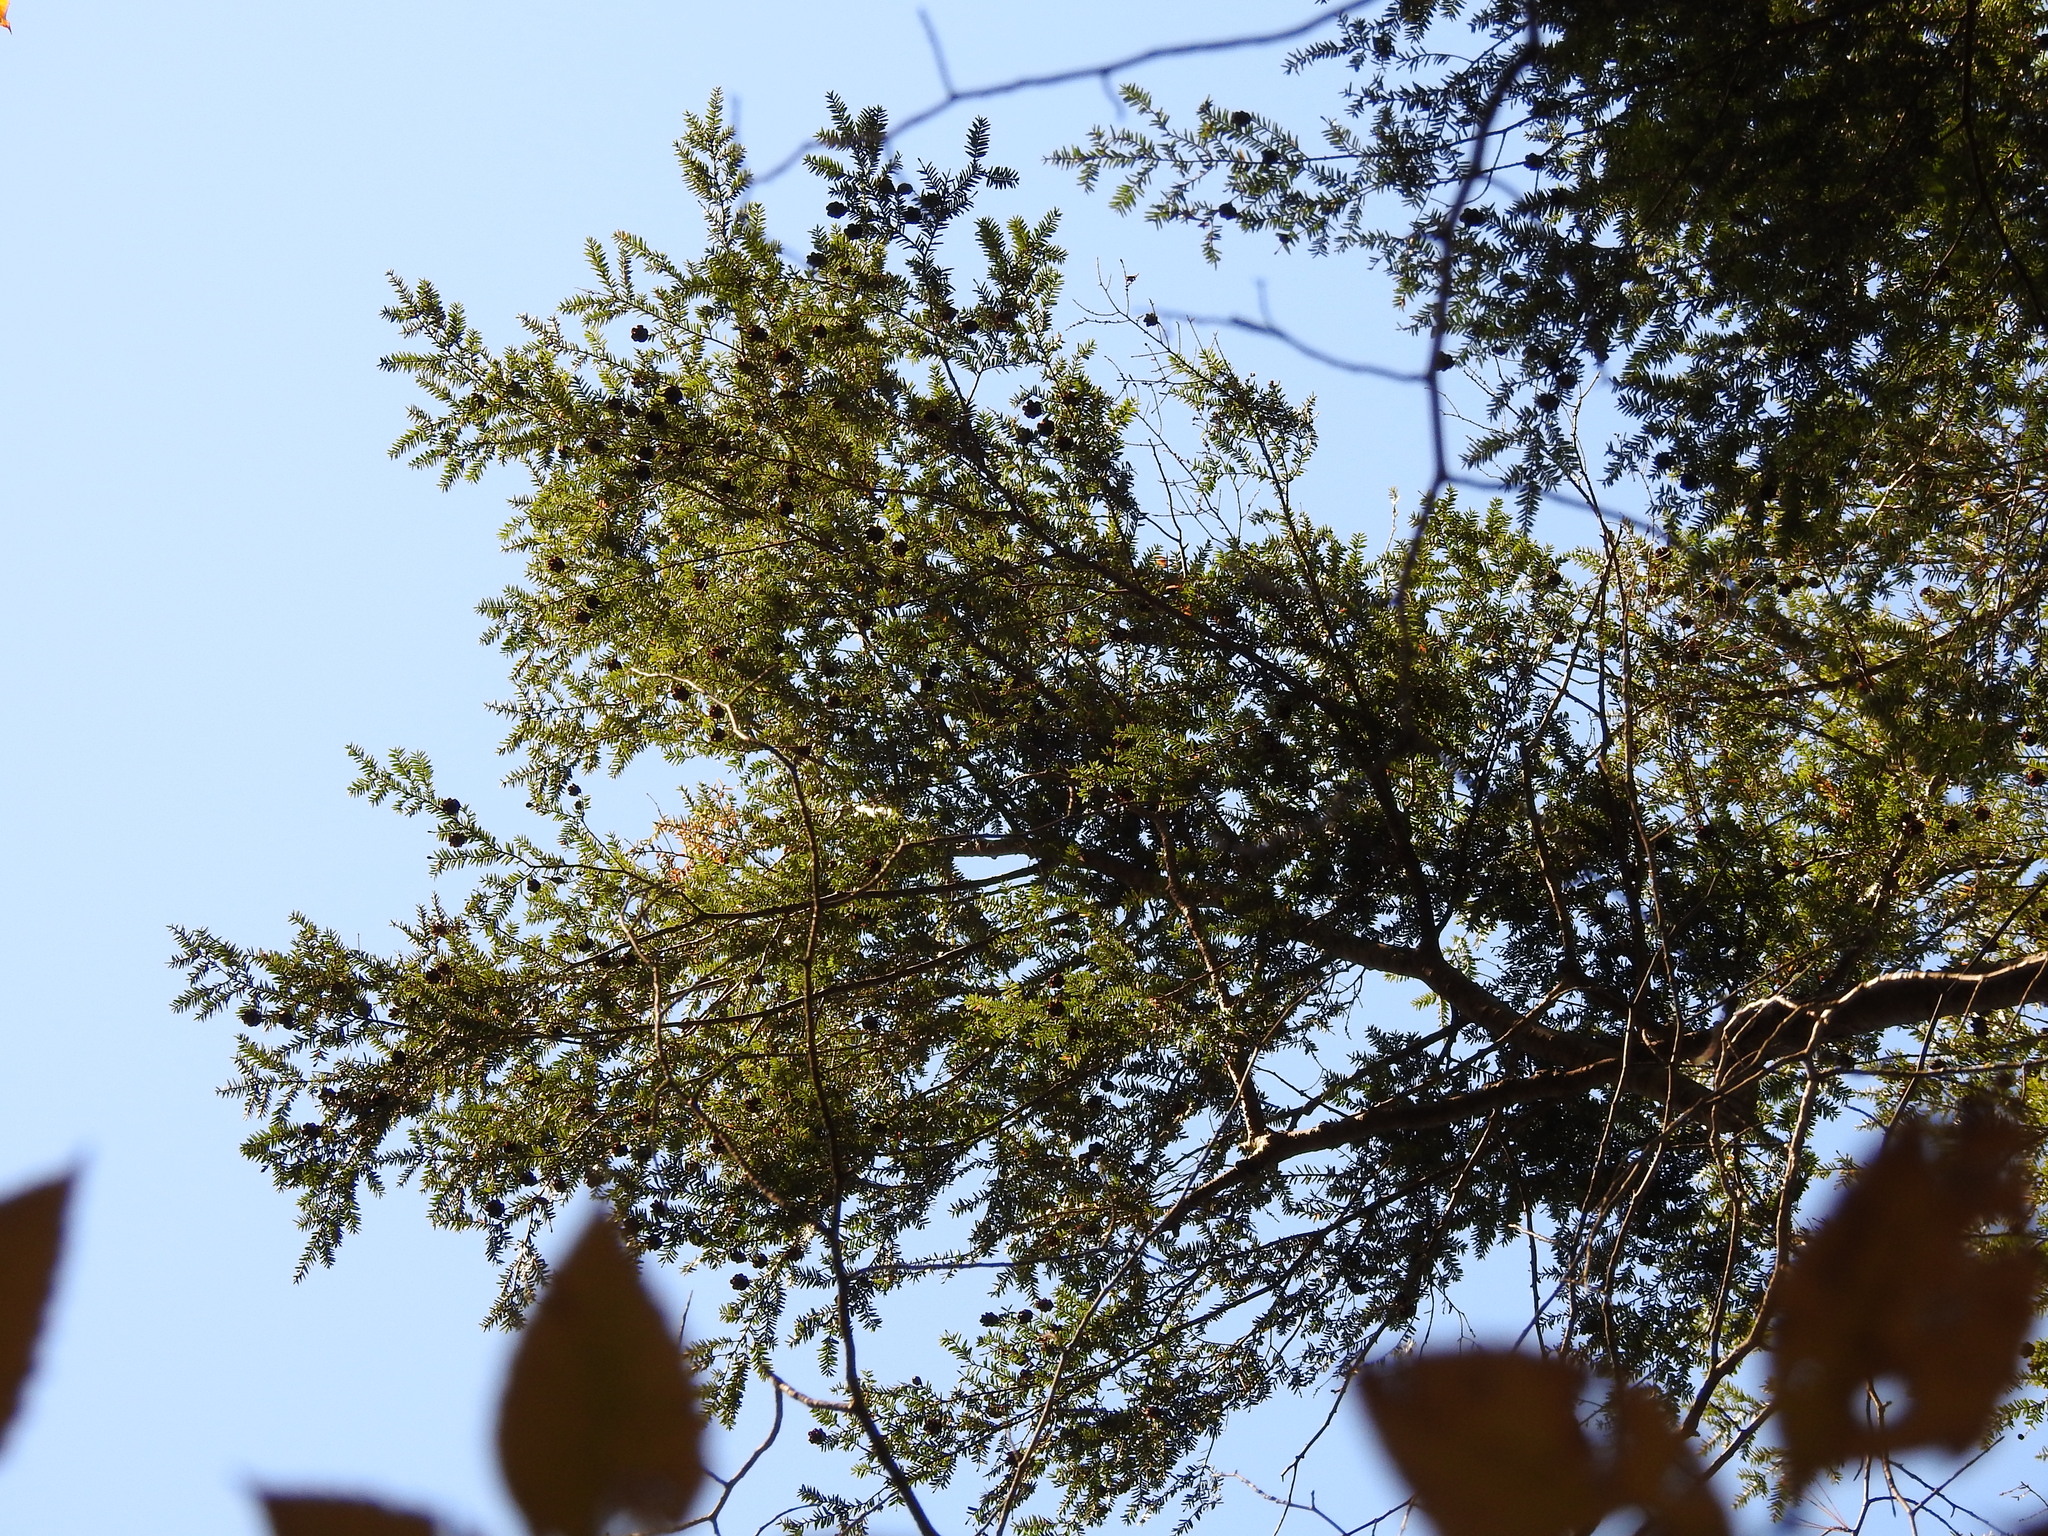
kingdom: Plantae
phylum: Tracheophyta
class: Pinopsida
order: Pinales
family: Pinaceae
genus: Tsuga
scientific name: Tsuga canadensis
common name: Eastern hemlock
